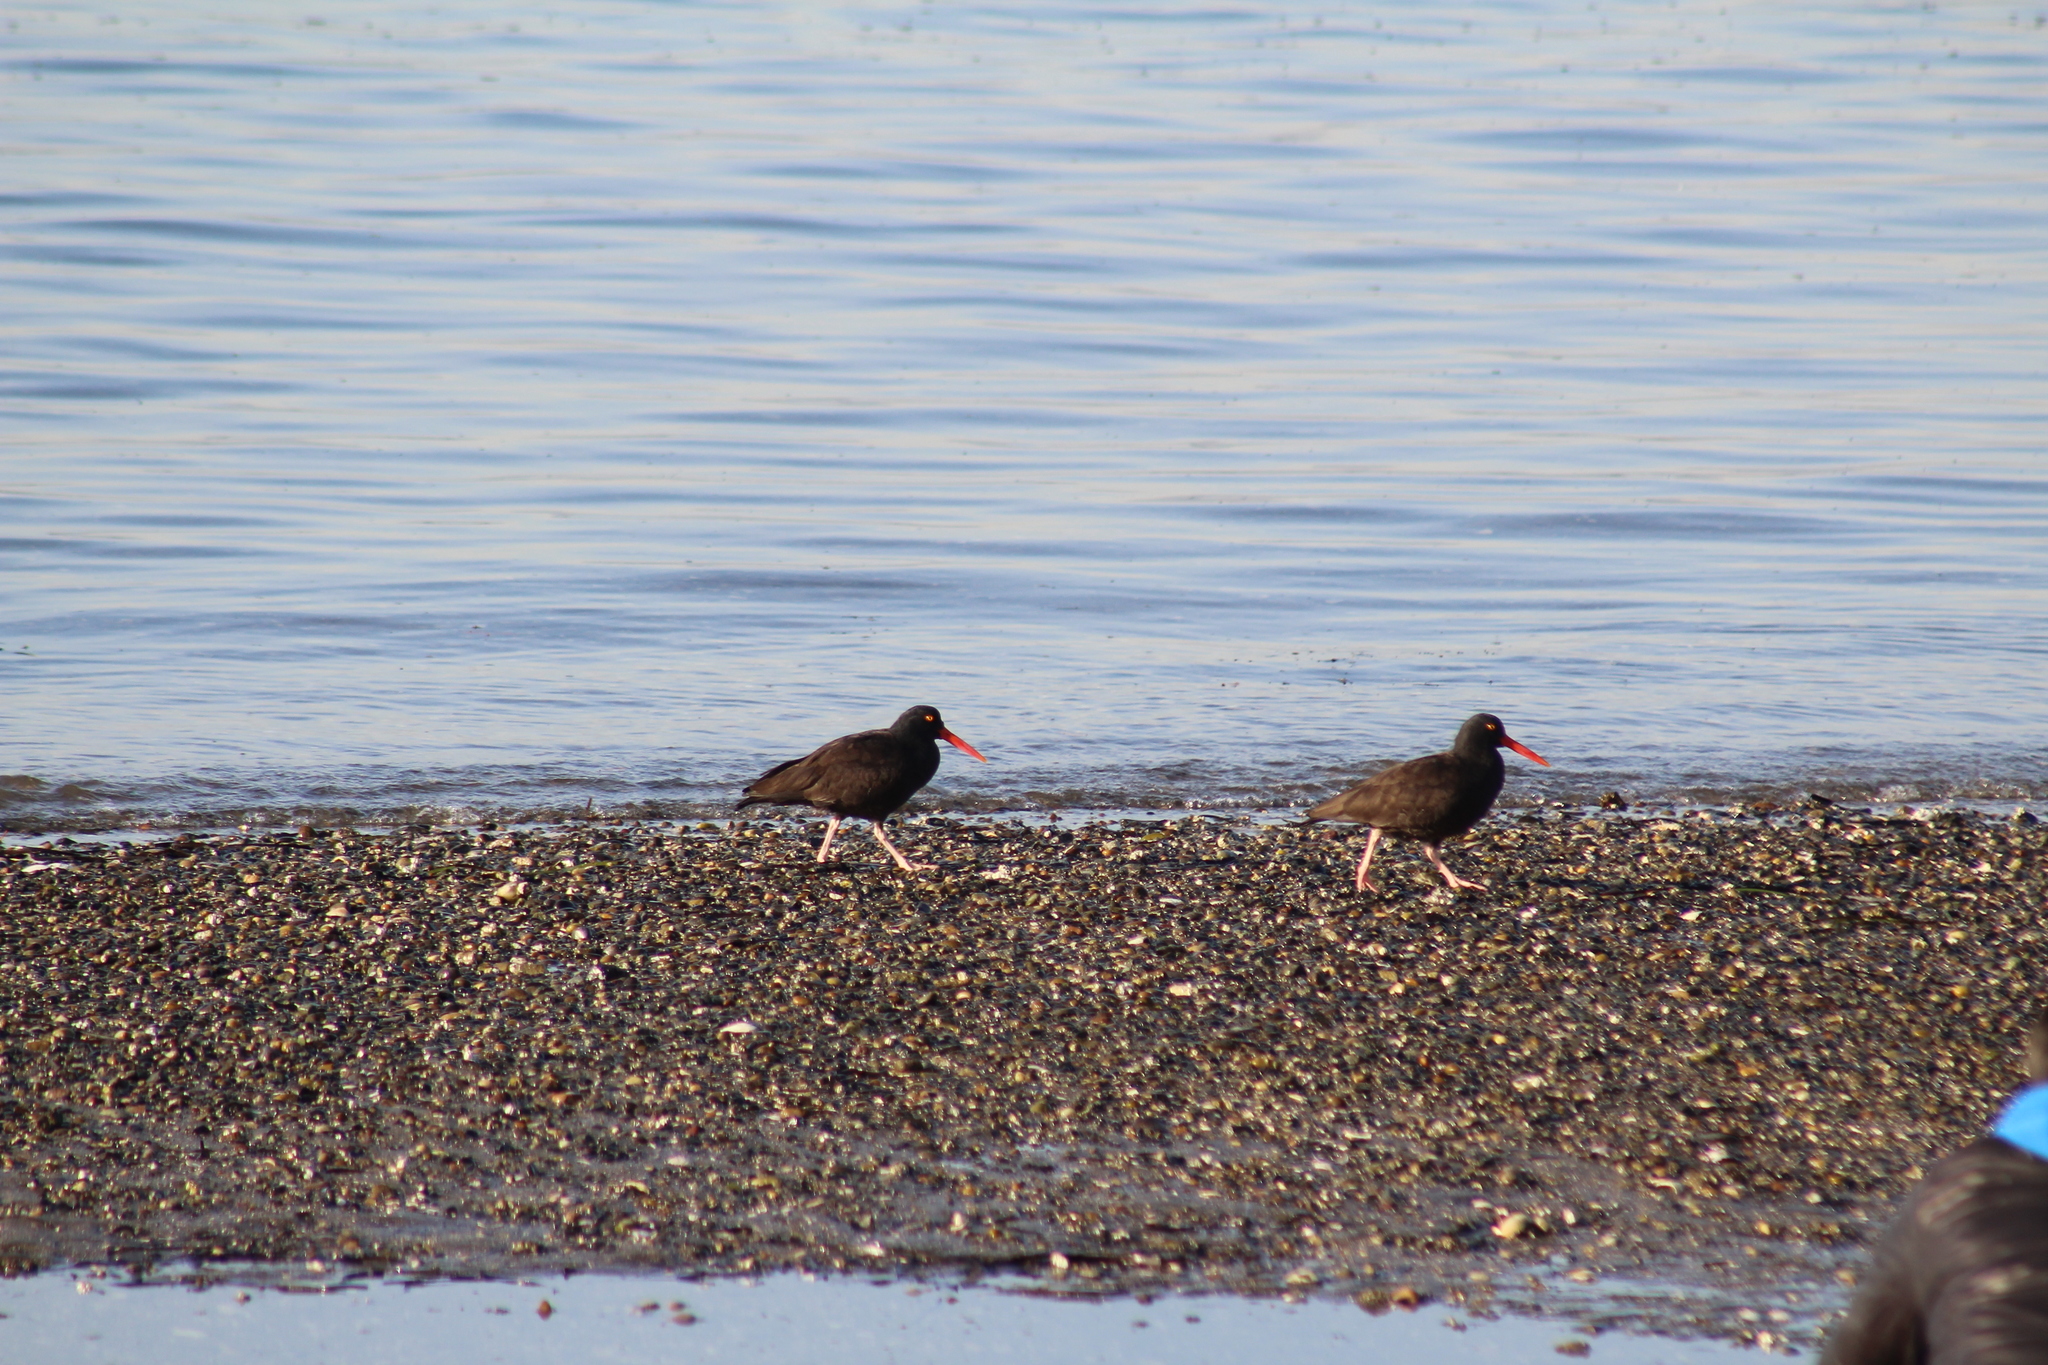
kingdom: Animalia
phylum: Chordata
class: Aves
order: Charadriiformes
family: Haematopodidae
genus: Haematopus
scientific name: Haematopus bachmani
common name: Black oystercatcher
